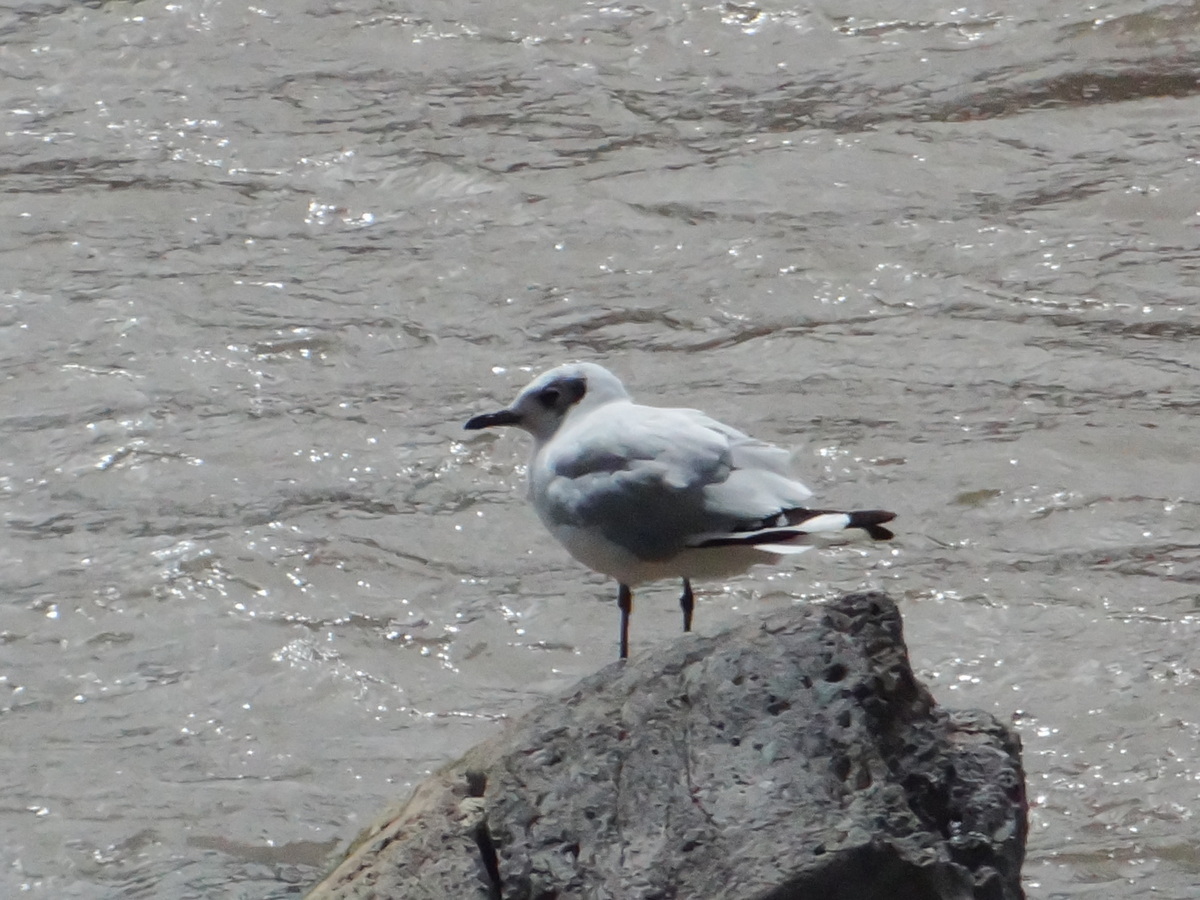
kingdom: Animalia
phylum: Chordata
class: Aves
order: Charadriiformes
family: Laridae
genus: Chroicocephalus
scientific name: Chroicocephalus serranus
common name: Andean gull
